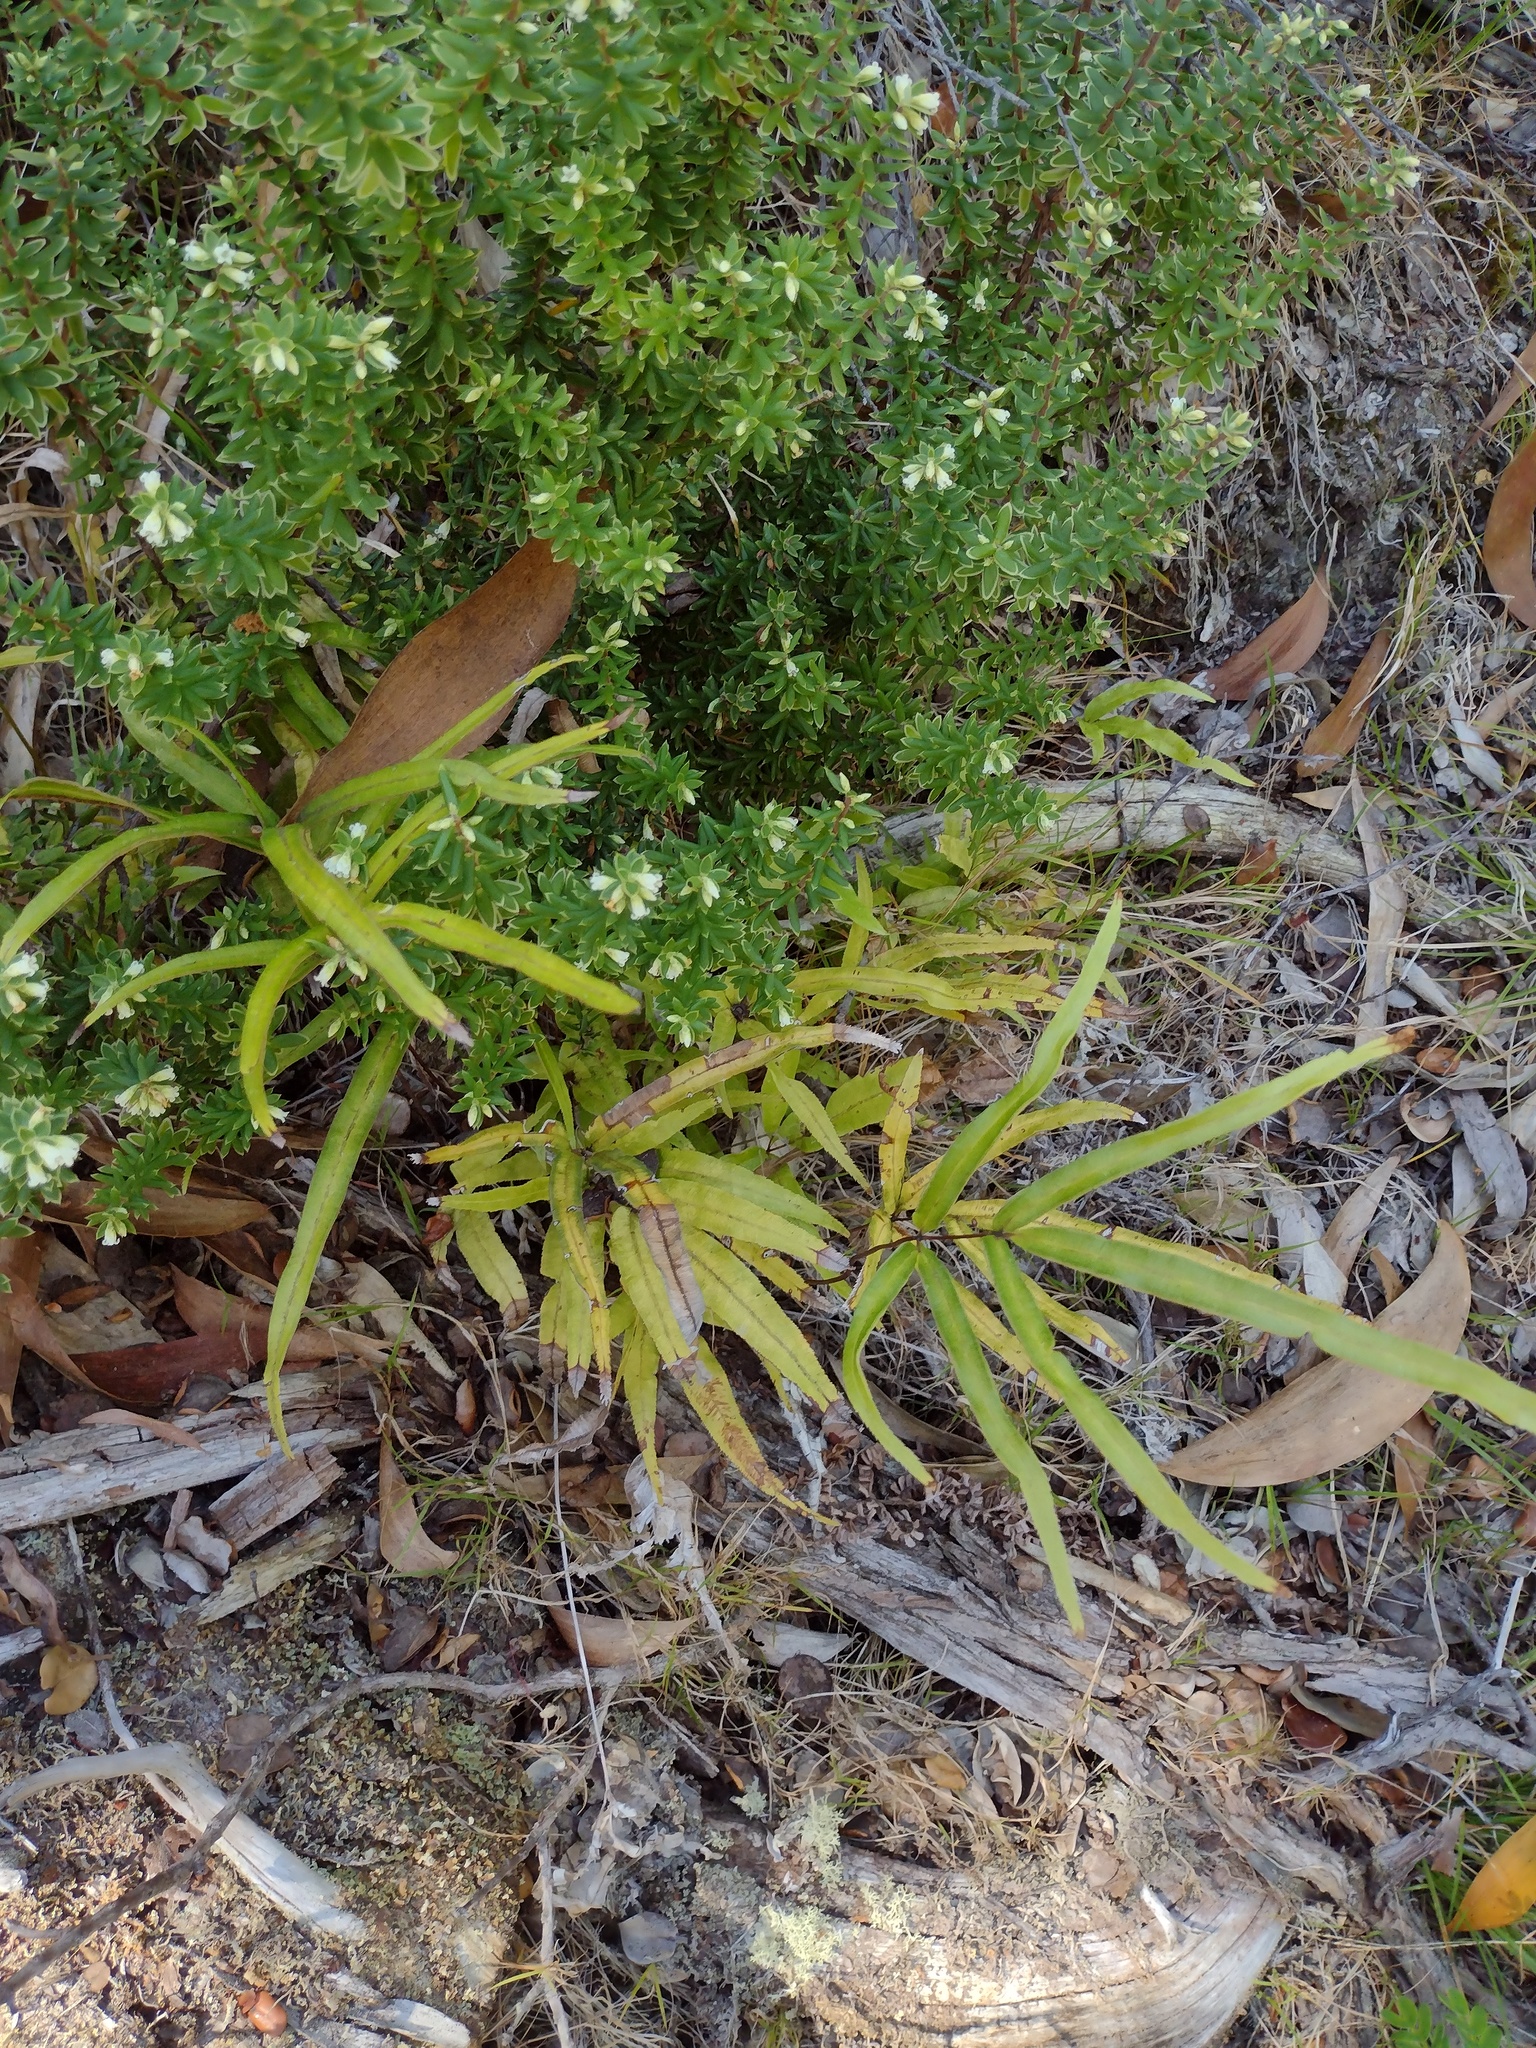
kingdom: Plantae
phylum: Tracheophyta
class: Polypodiopsida
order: Polypodiales
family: Pteridaceae
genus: Pteris
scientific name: Pteris cretica
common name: Ribbon fern
